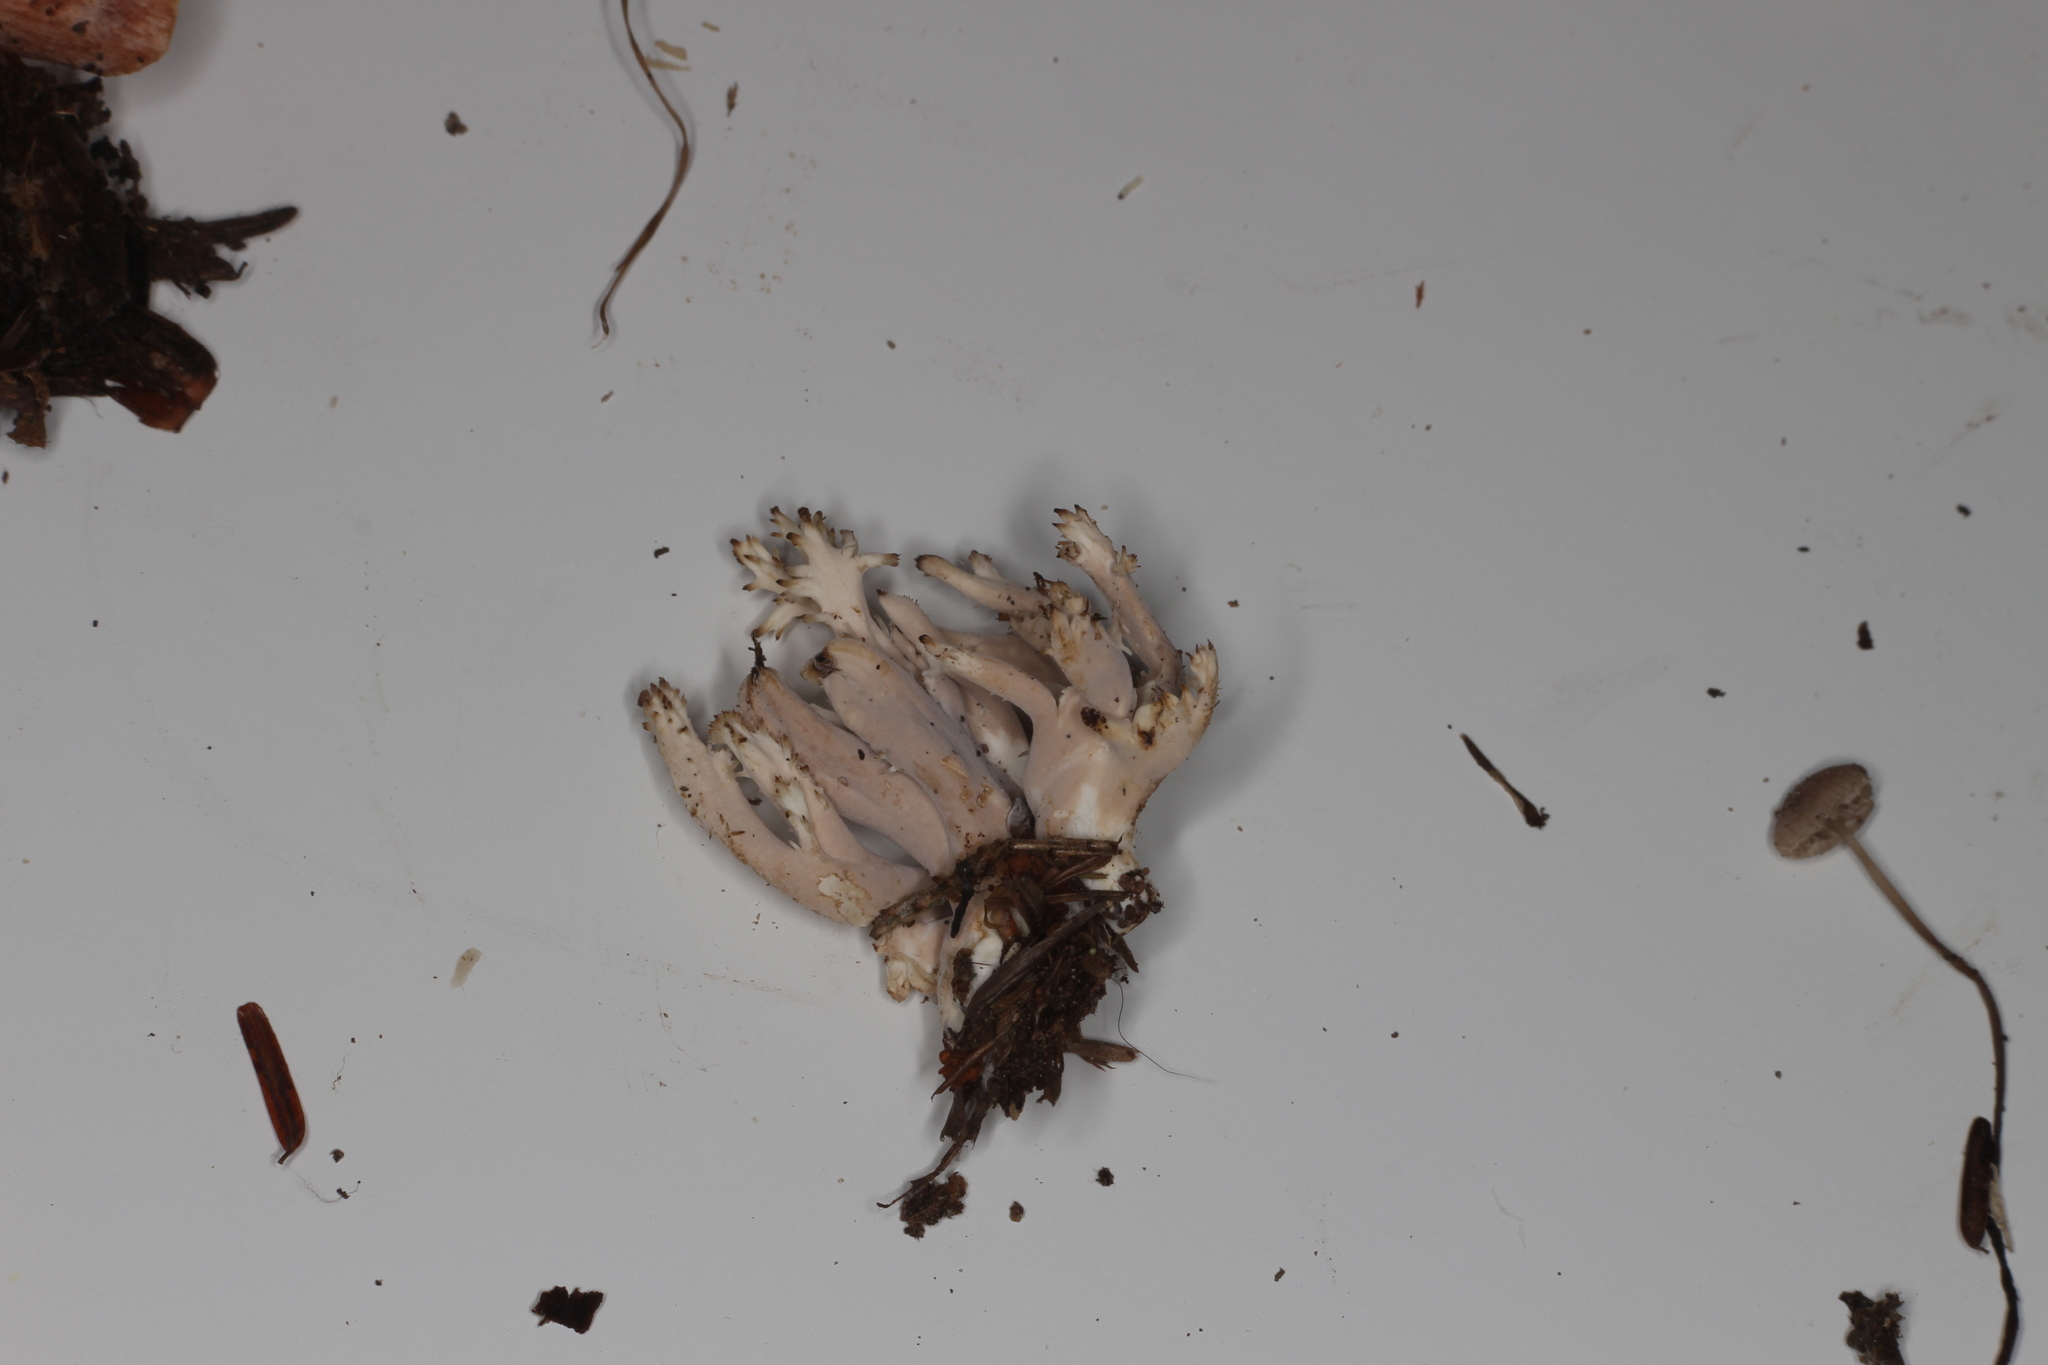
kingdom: Fungi
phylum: Basidiomycota
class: Agaricomycetes
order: Cantharellales
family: Hydnaceae
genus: Clavulina
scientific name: Clavulina coralloides
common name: Crested coral
